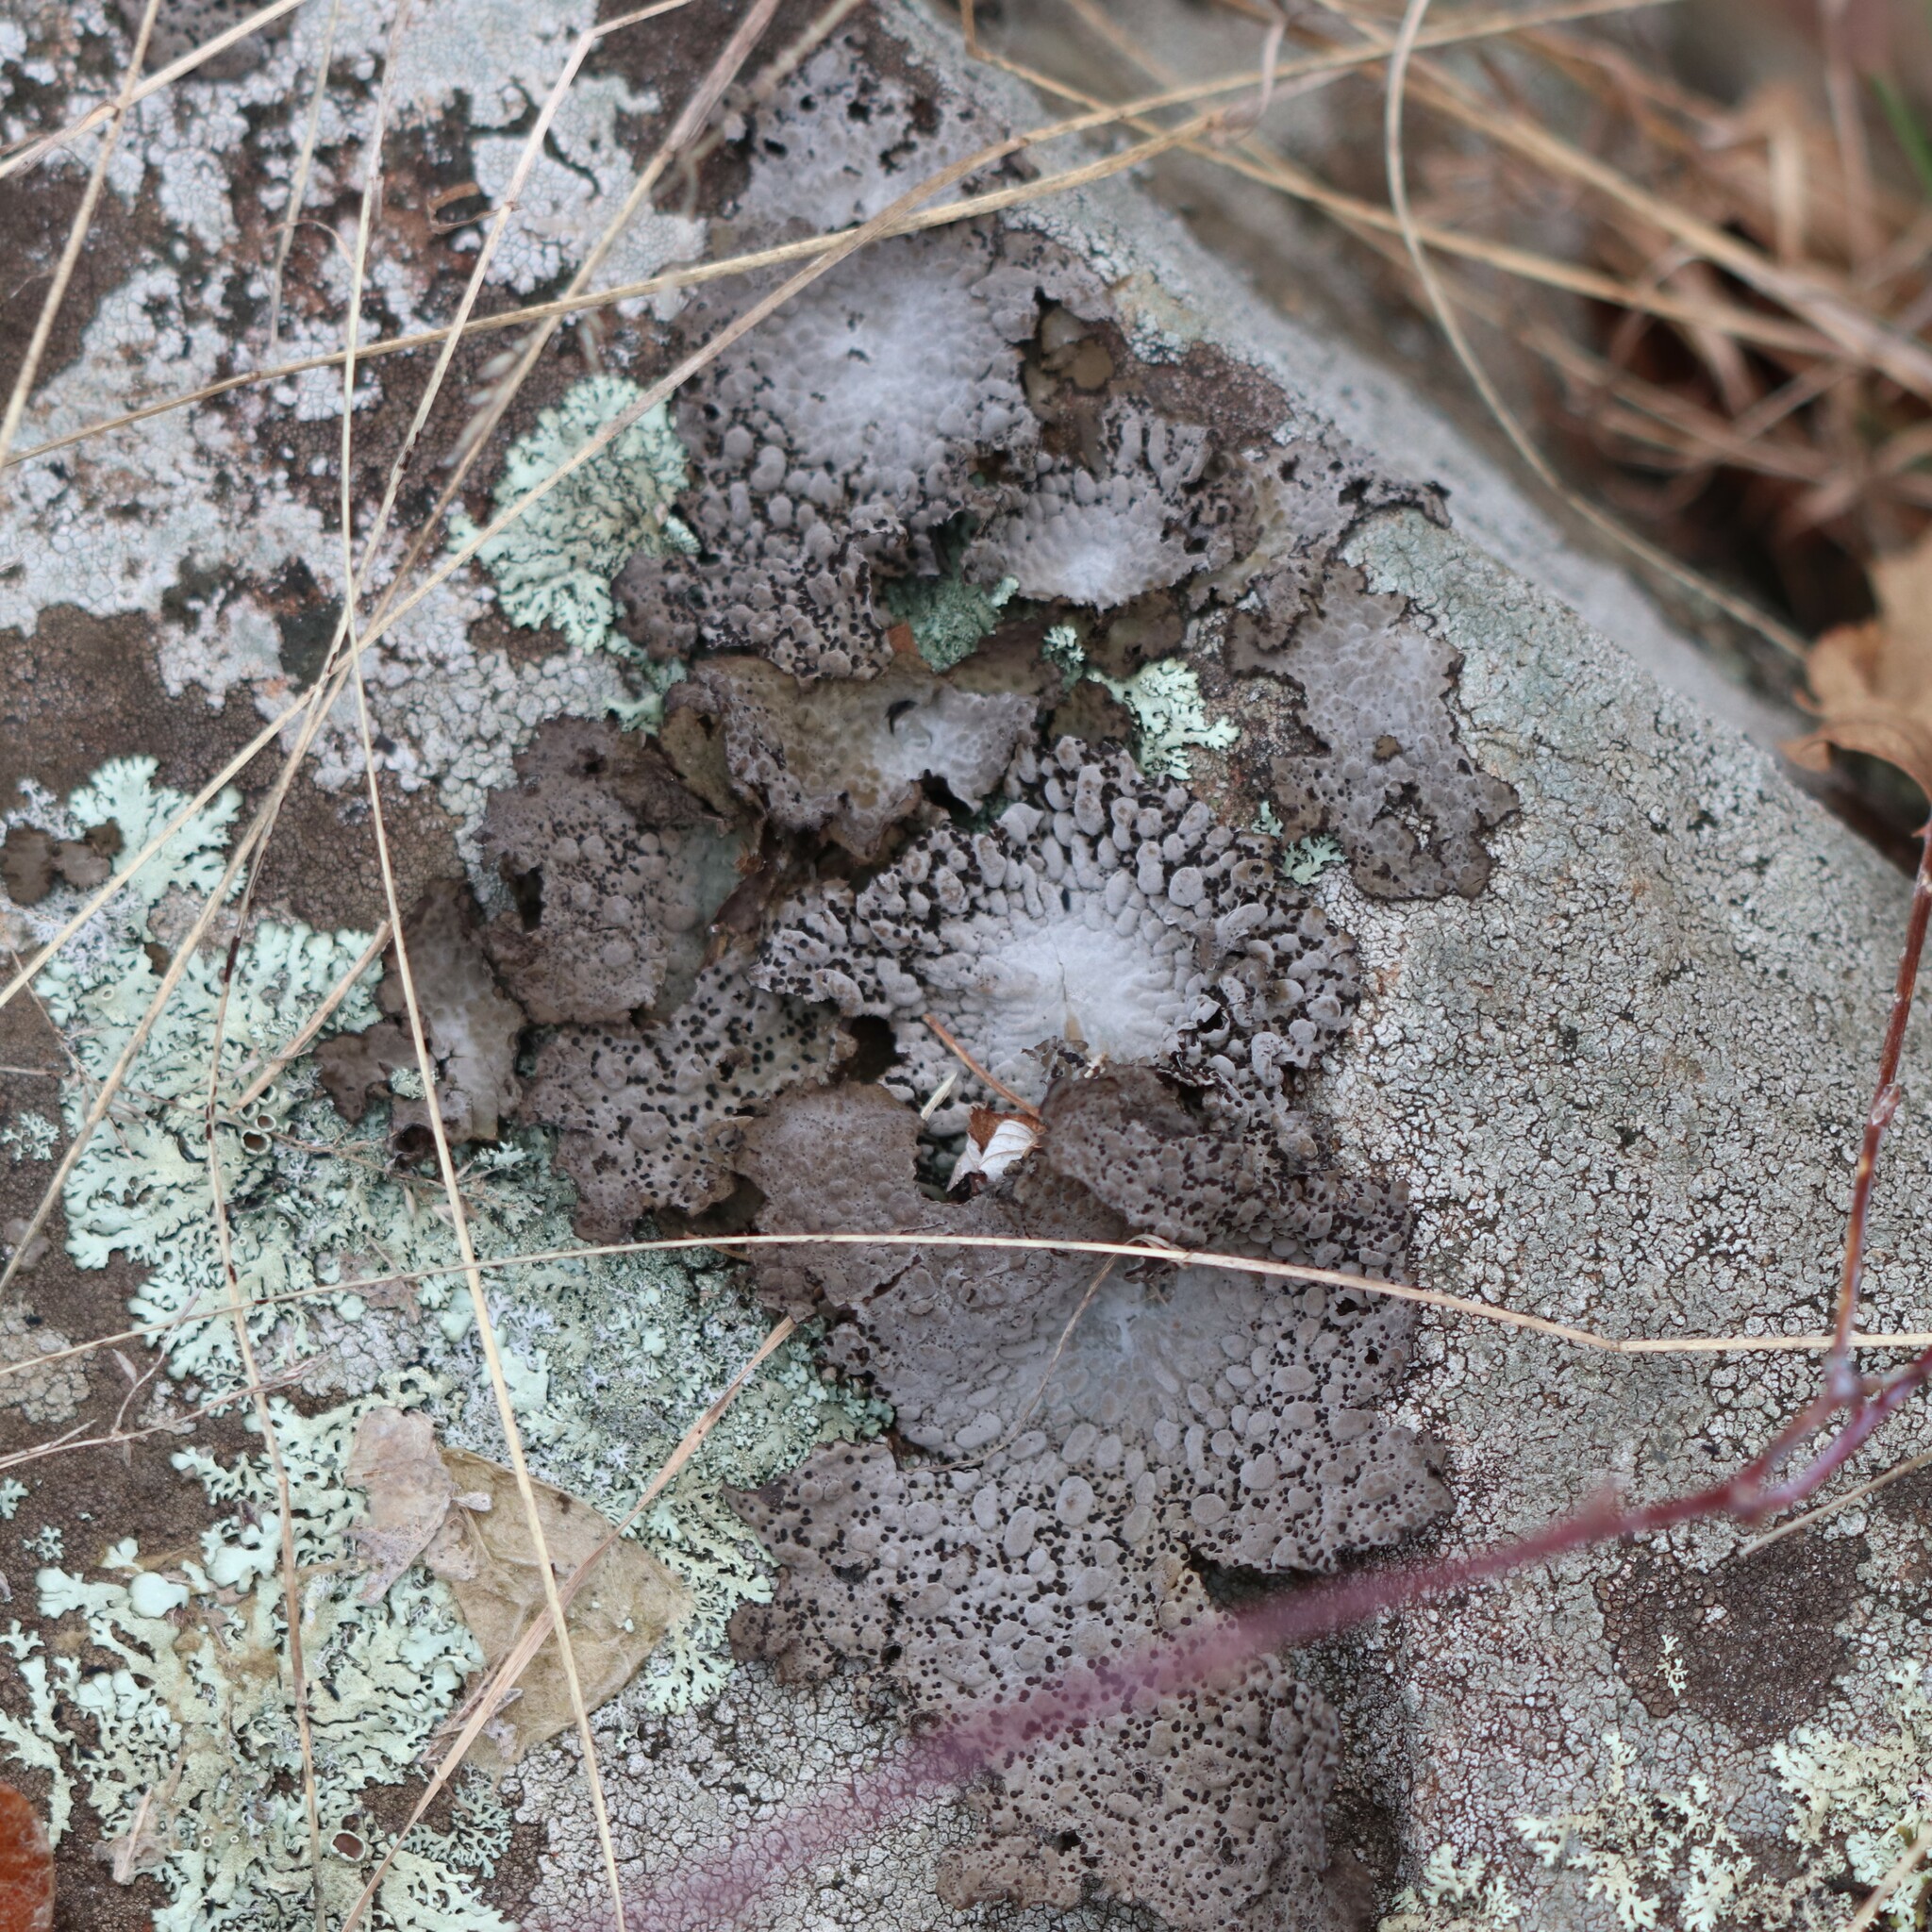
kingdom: Fungi
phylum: Ascomycota
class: Lecanoromycetes
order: Umbilicariales
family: Umbilicariaceae
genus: Lasallia
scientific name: Lasallia papulosa
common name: Common toadskin lichen
